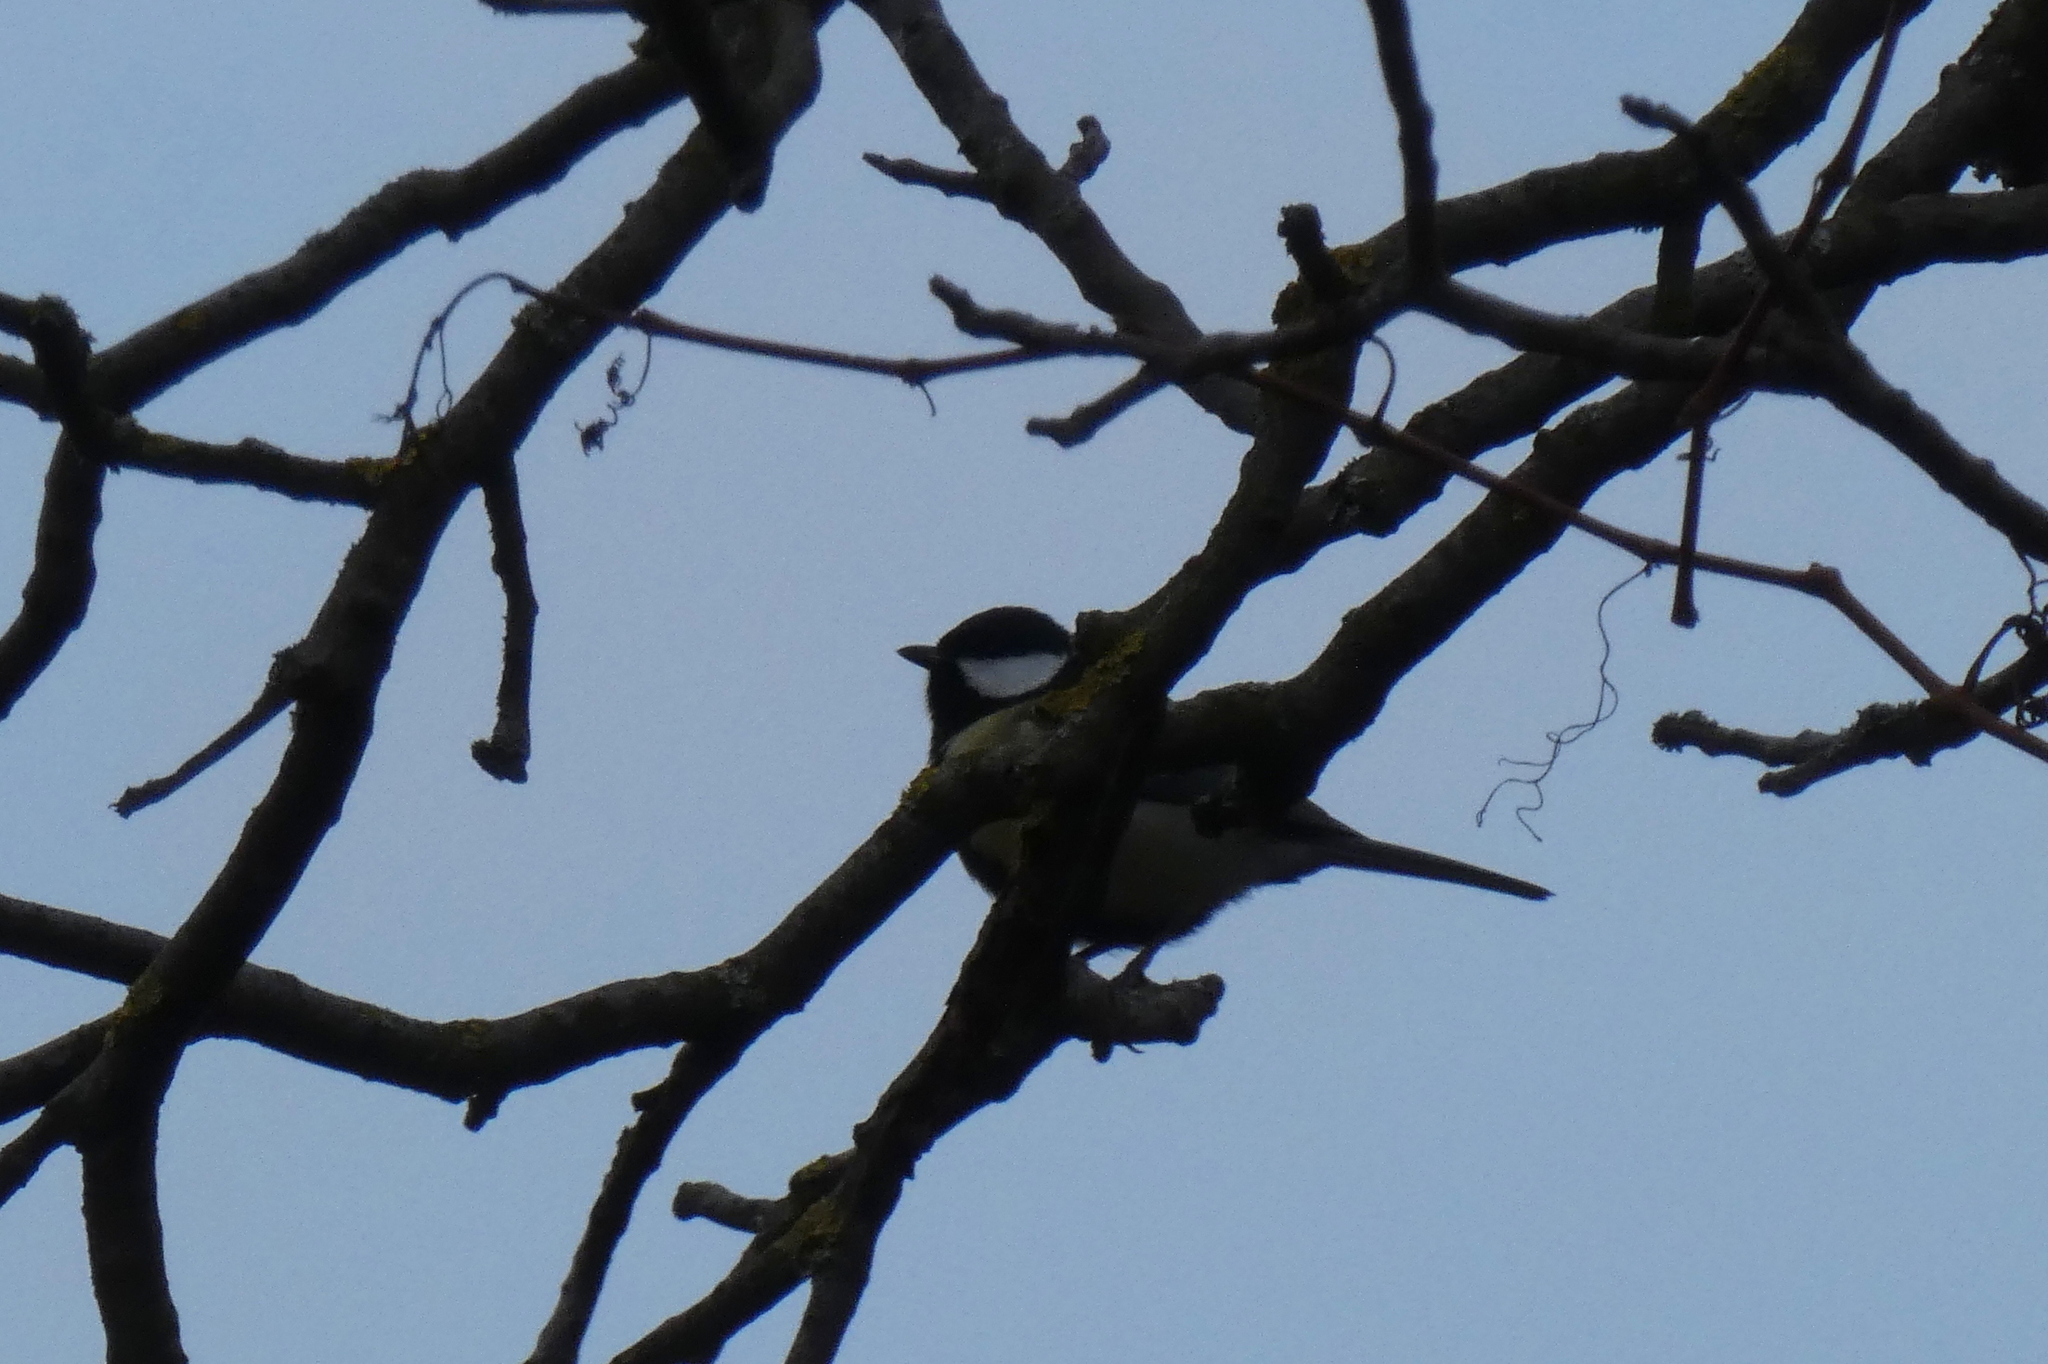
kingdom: Animalia
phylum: Chordata
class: Aves
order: Passeriformes
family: Paridae
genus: Parus
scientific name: Parus major
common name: Great tit
